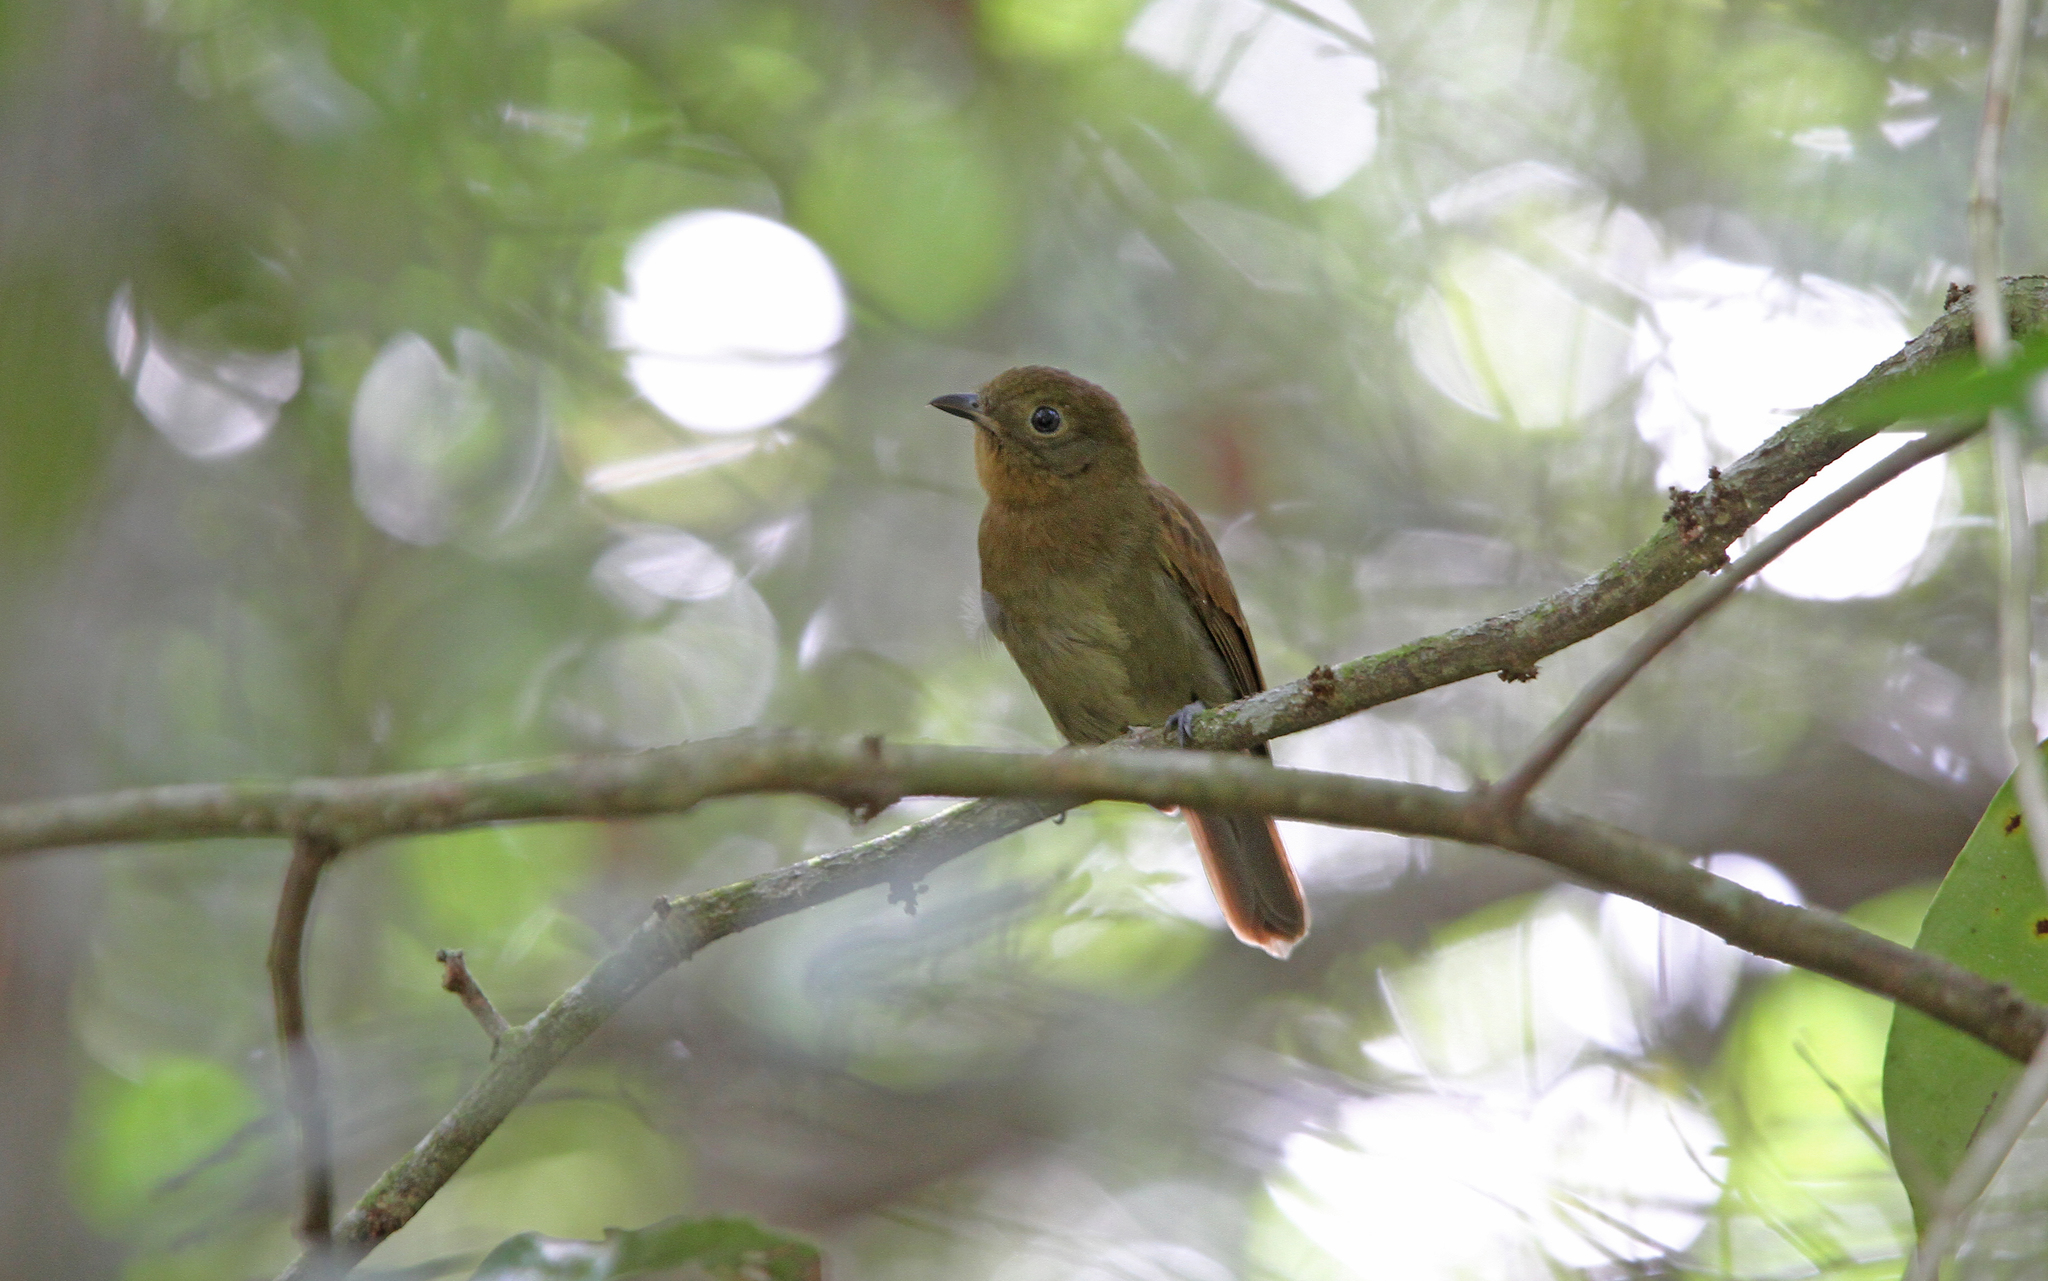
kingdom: Animalia
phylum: Chordata
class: Aves
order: Passeriformes
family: Cotingidae
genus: Schiffornis
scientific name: Schiffornis turdina
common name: Brown-winged schiffornis
